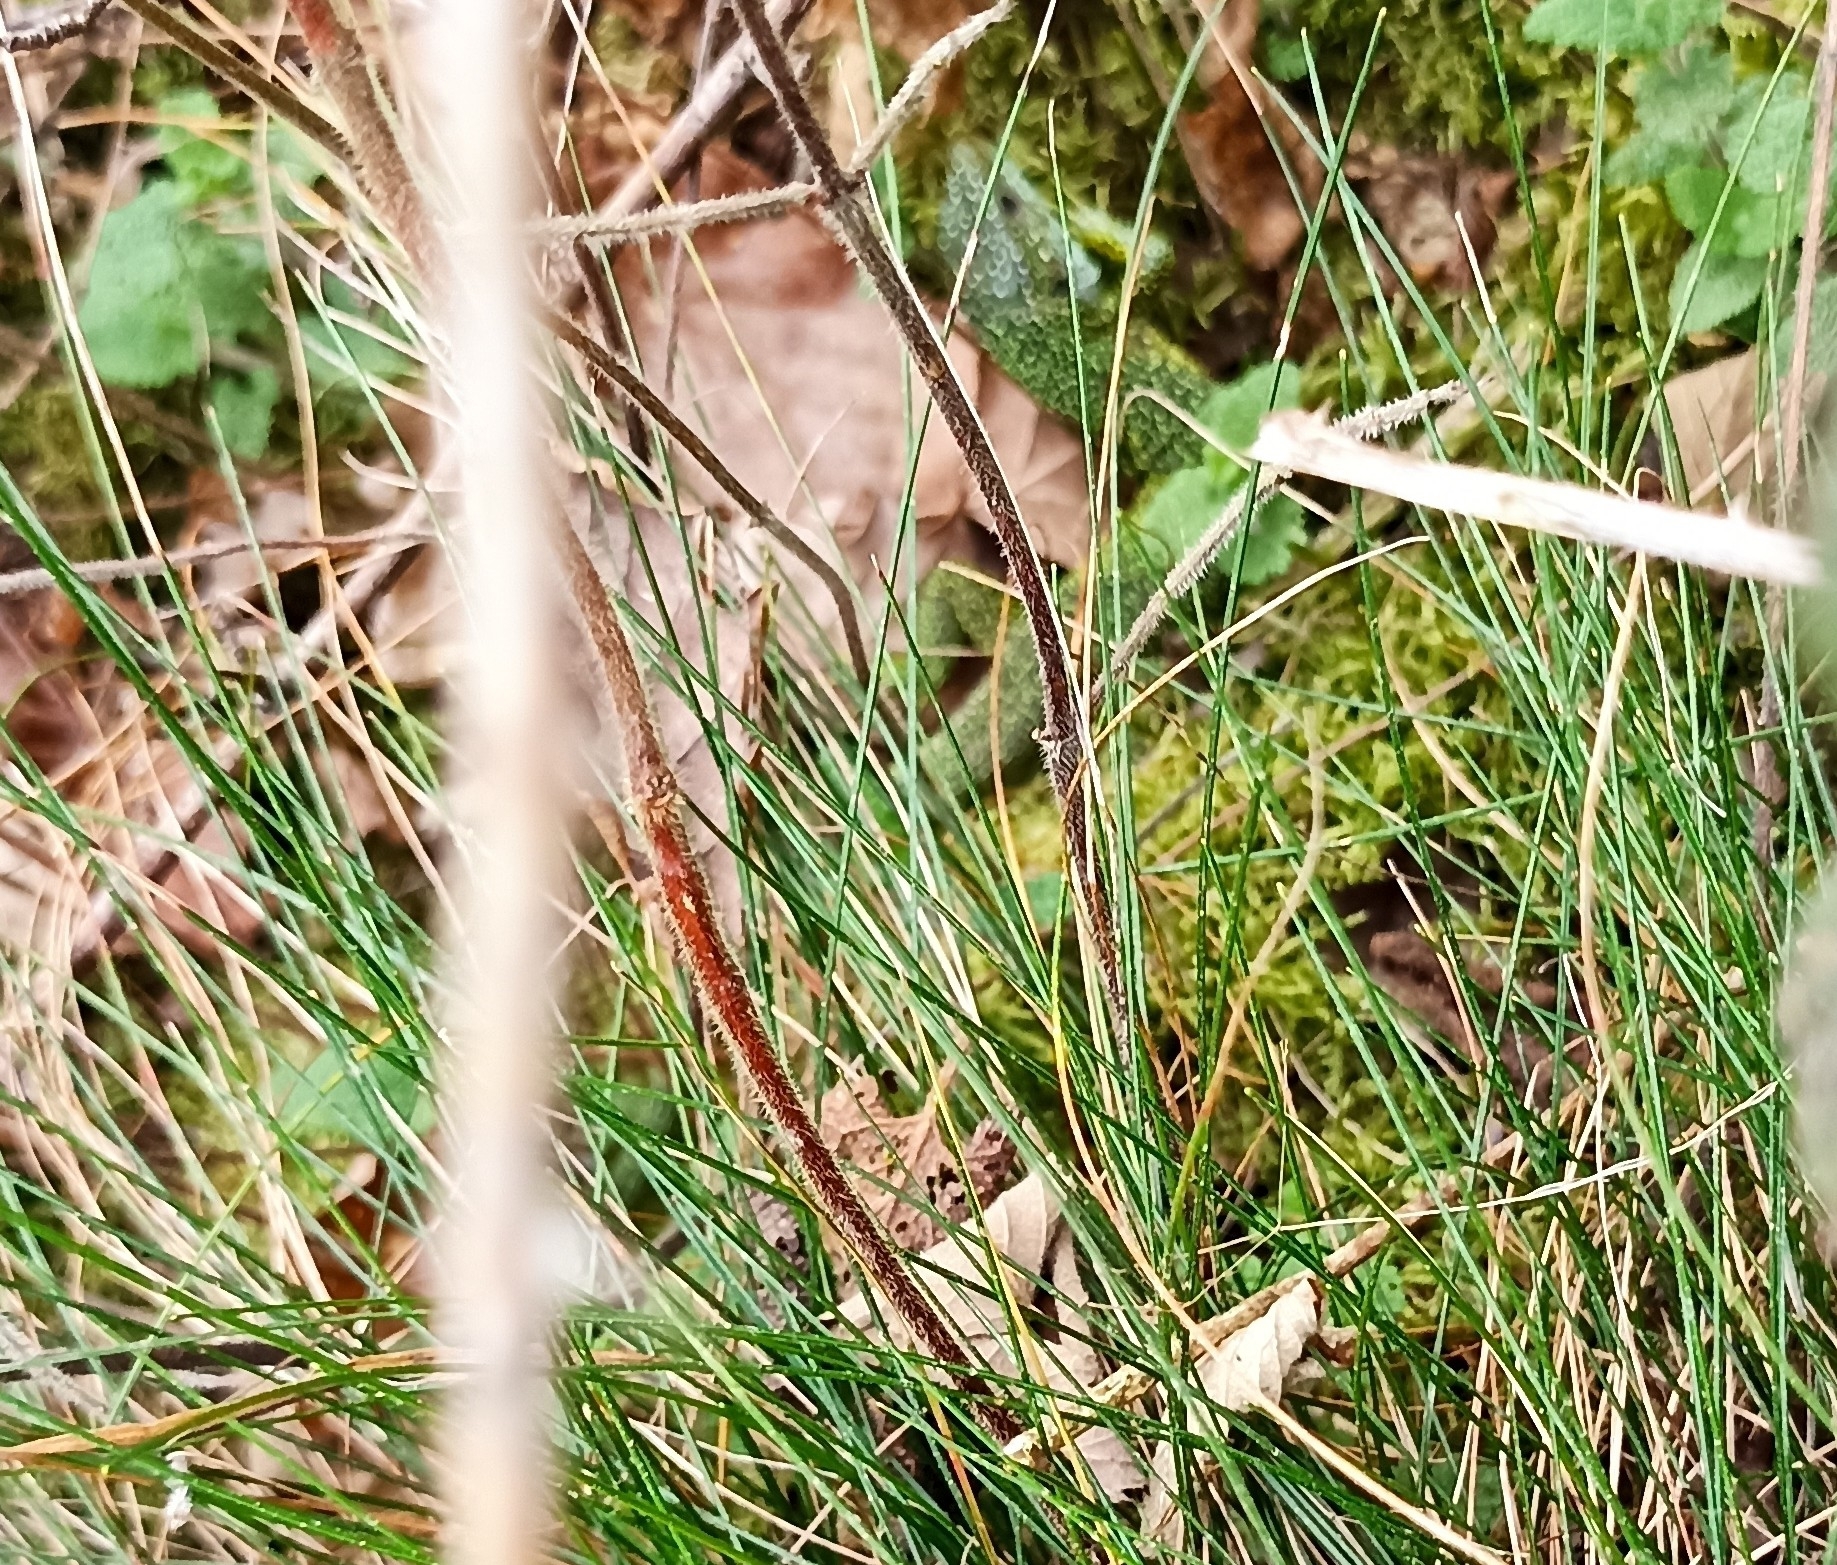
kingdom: Animalia
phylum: Chordata
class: Squamata
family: Lacertidae
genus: Lacerta
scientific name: Lacerta bilineata
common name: Western green lizard
